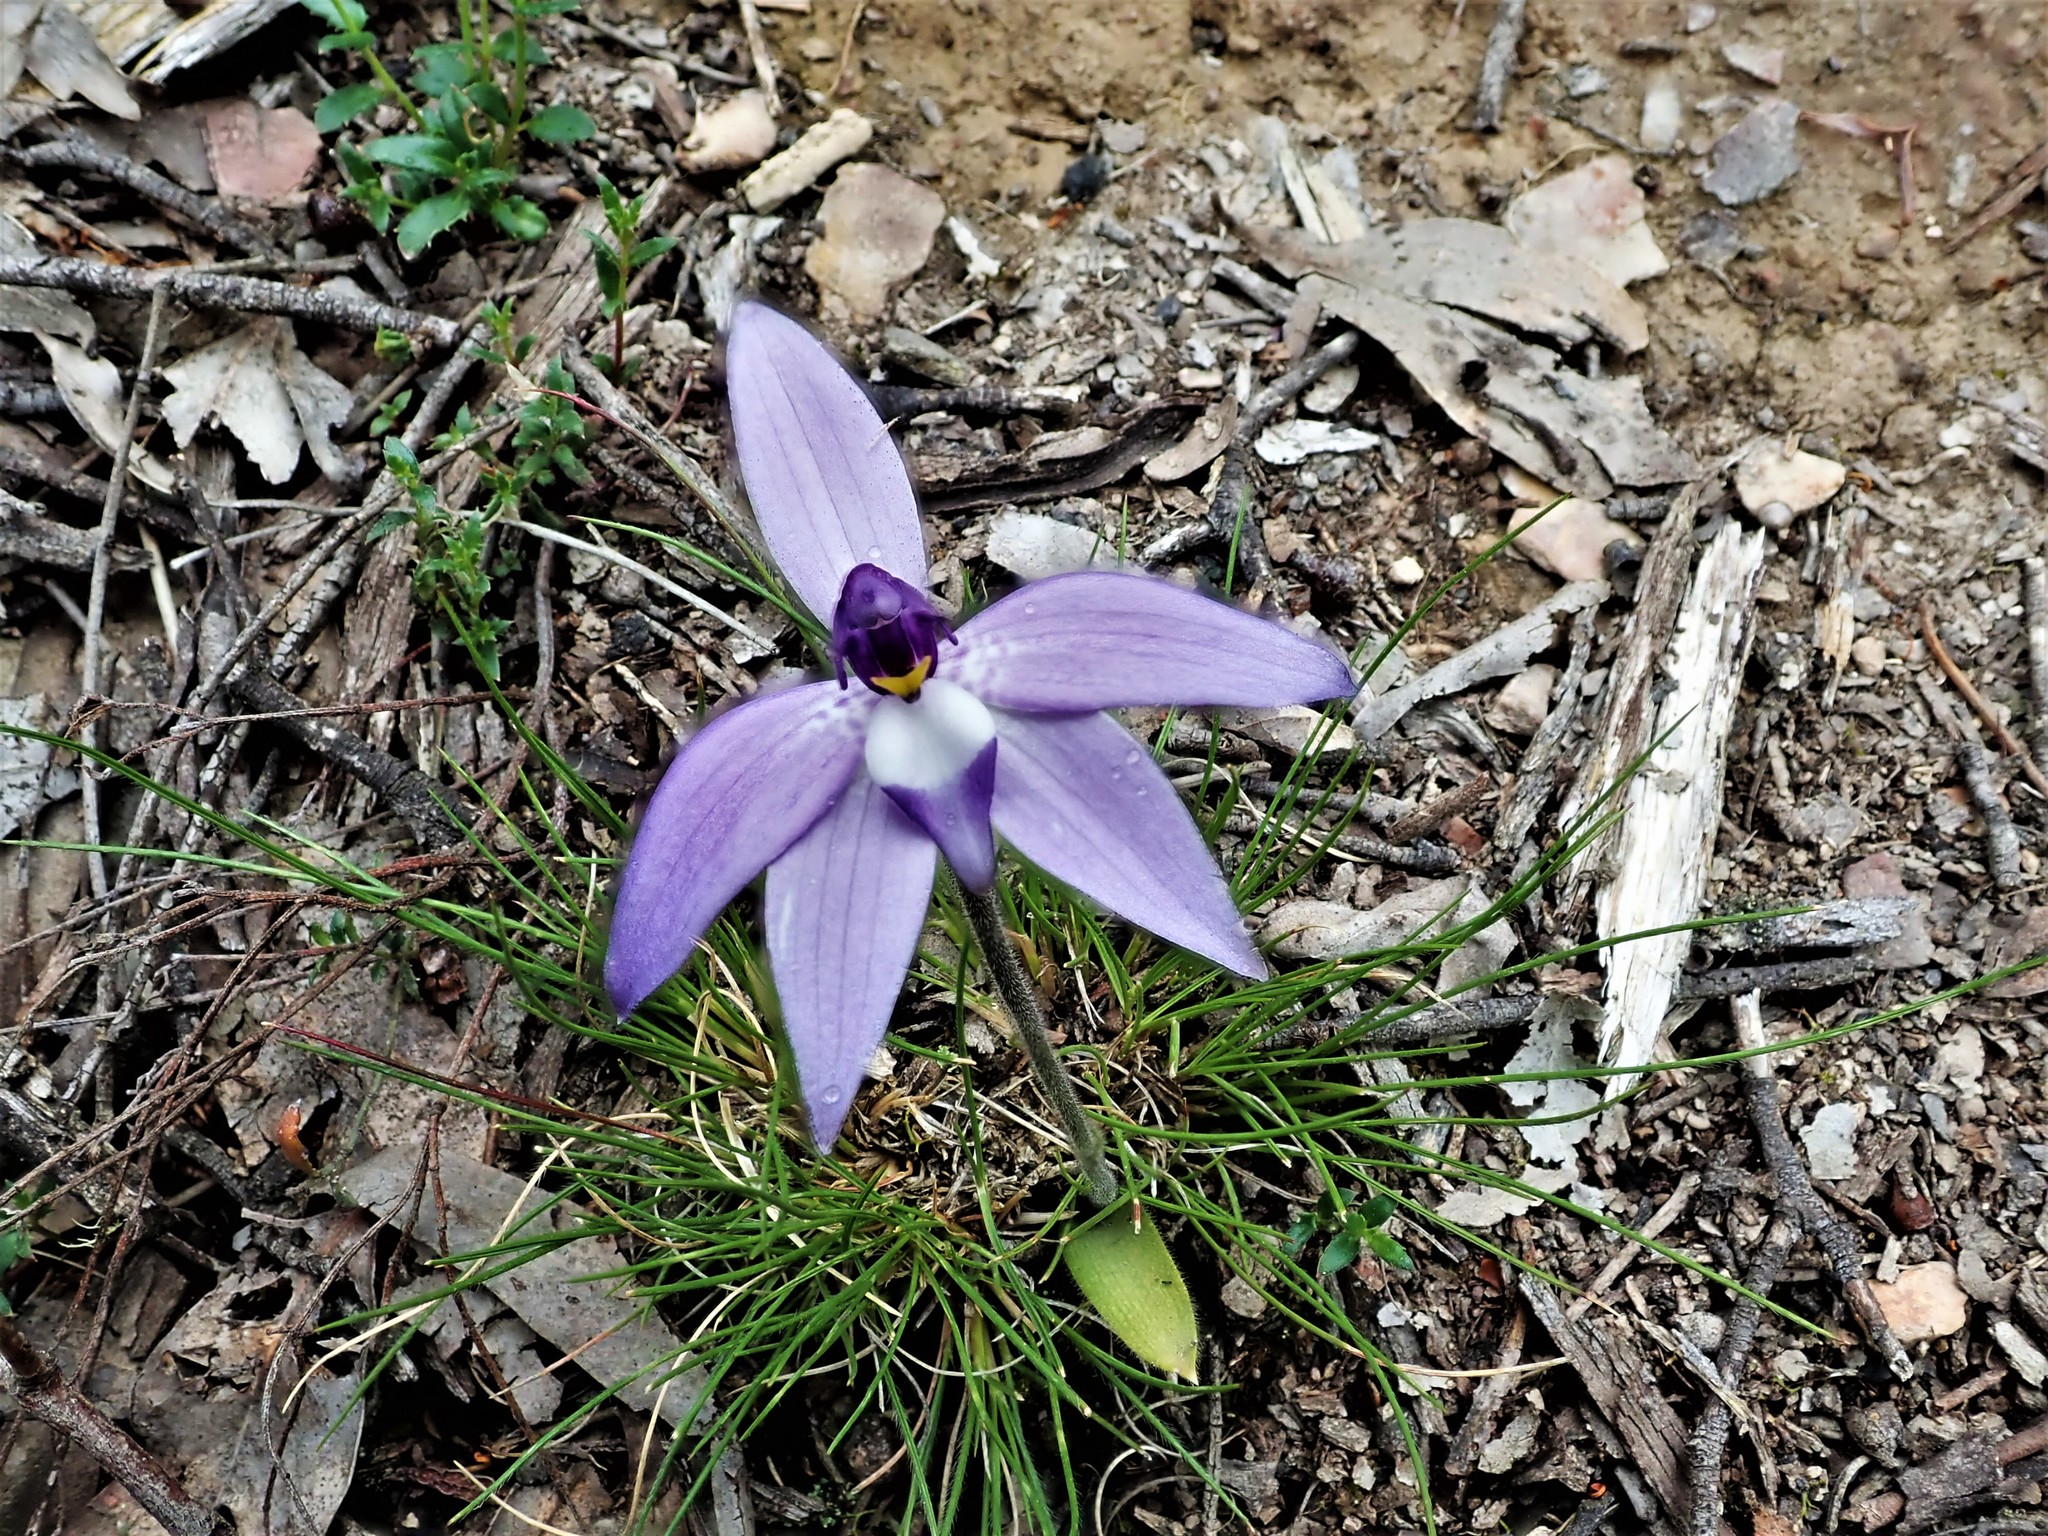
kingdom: Plantae
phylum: Tracheophyta
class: Liliopsida
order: Asparagales
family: Orchidaceae
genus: Caladenia
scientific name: Caladenia major
